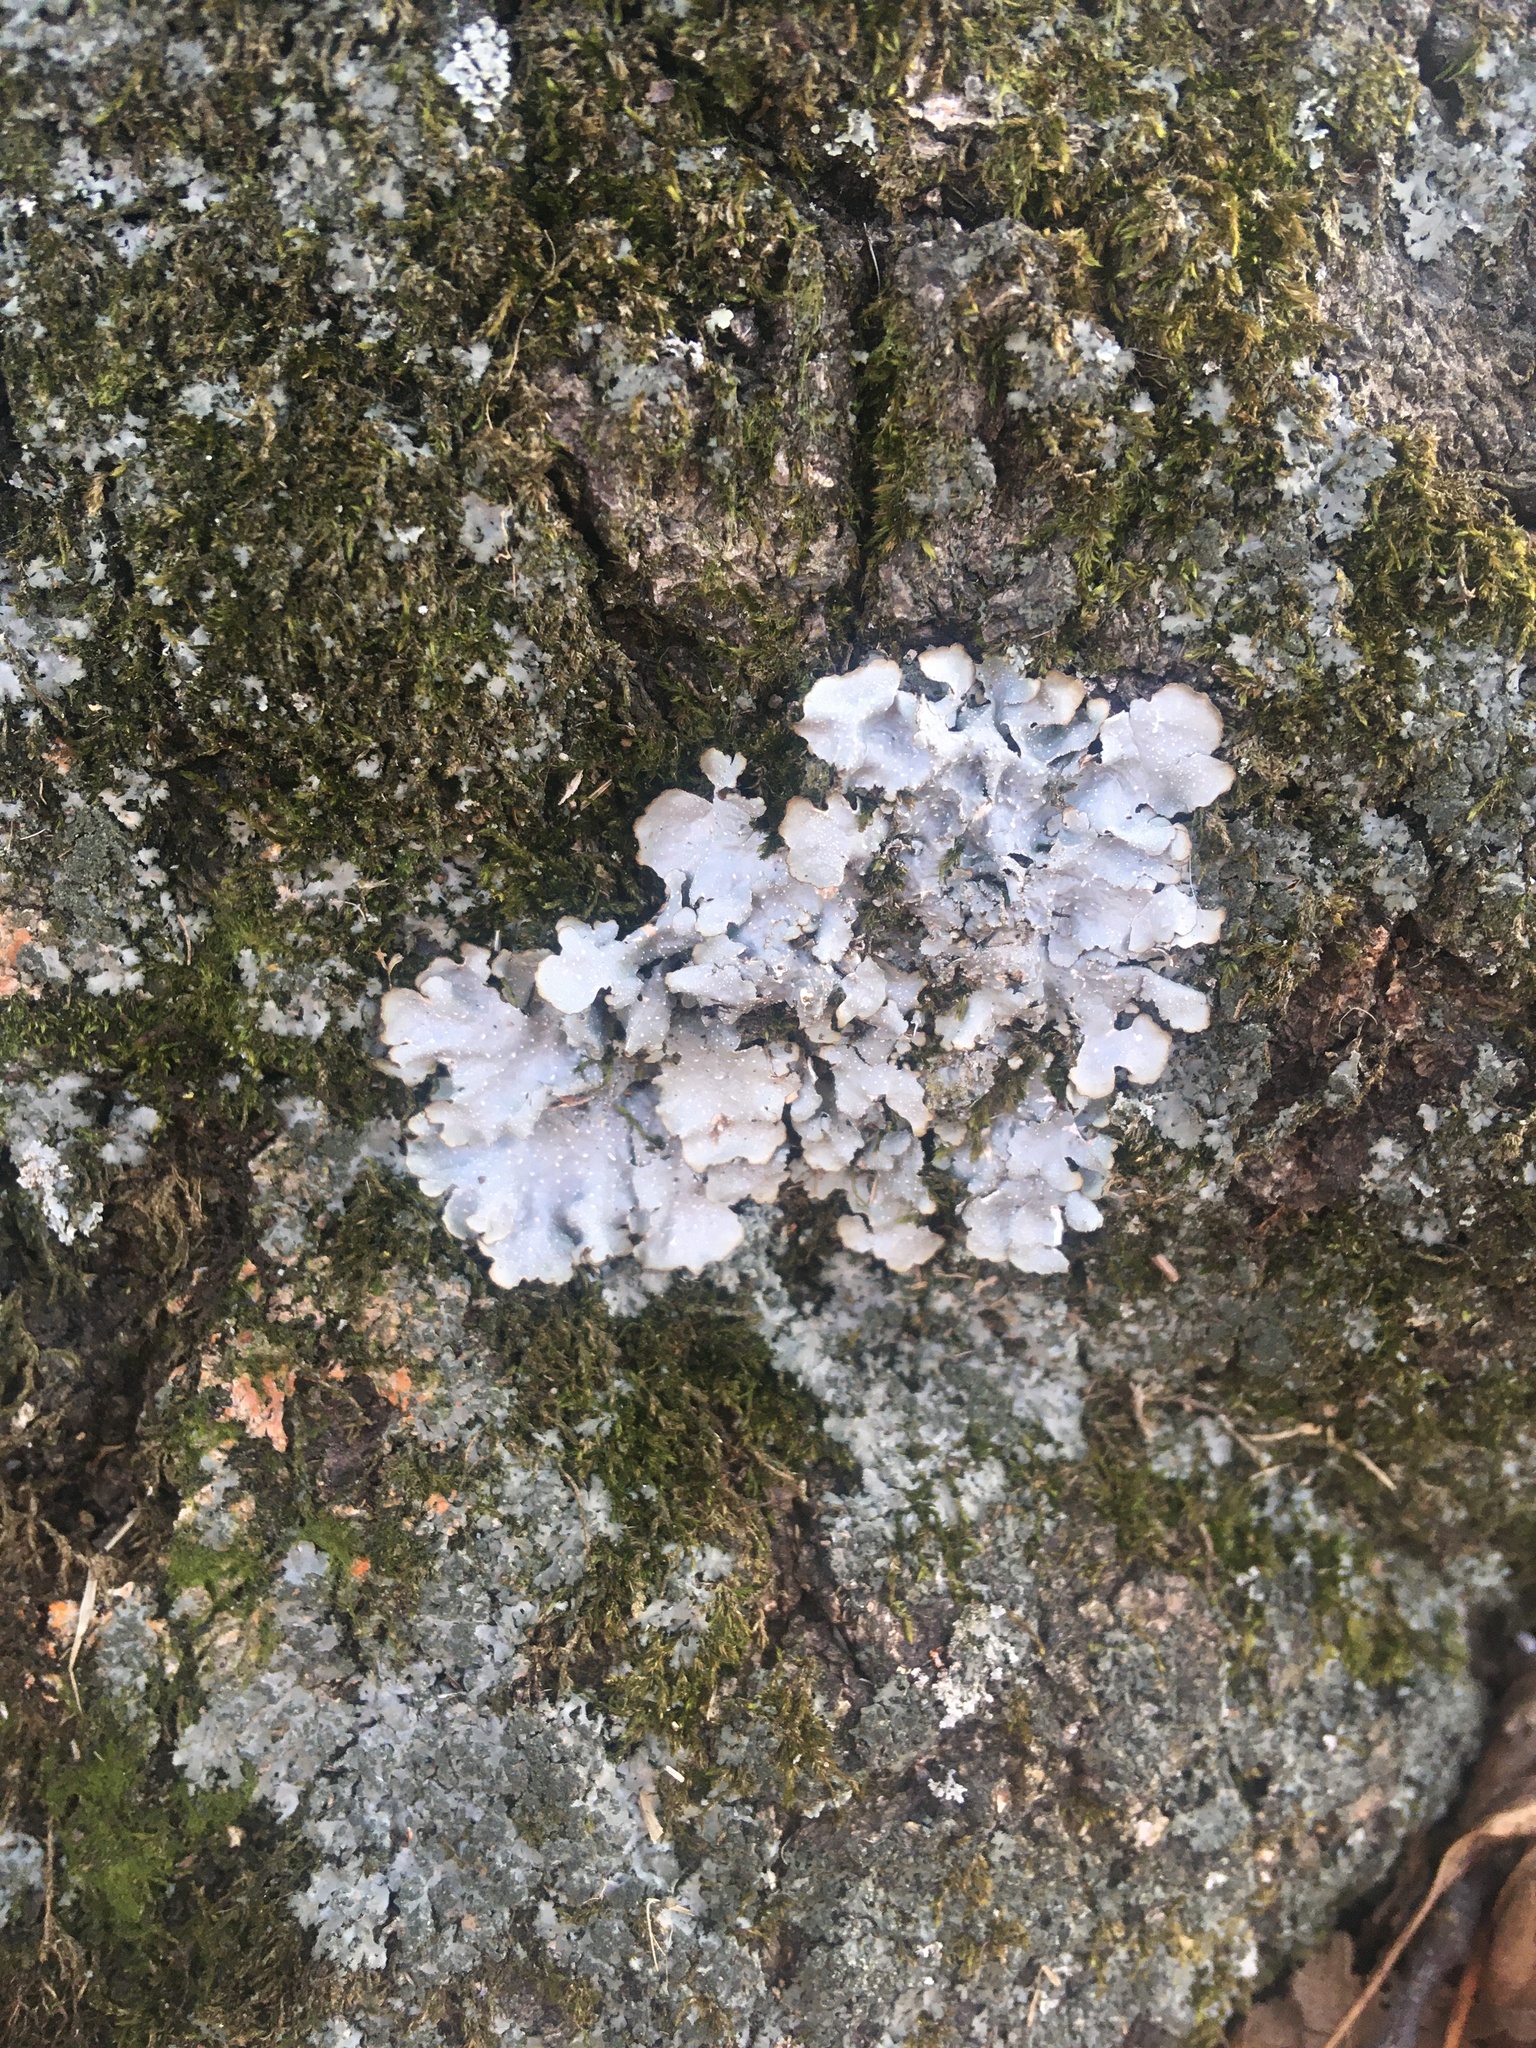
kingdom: Fungi
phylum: Ascomycota
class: Lecanoromycetes
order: Lecanorales
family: Parmeliaceae
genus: Punctelia
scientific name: Punctelia rudecta
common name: Rough speckled shield lichen
